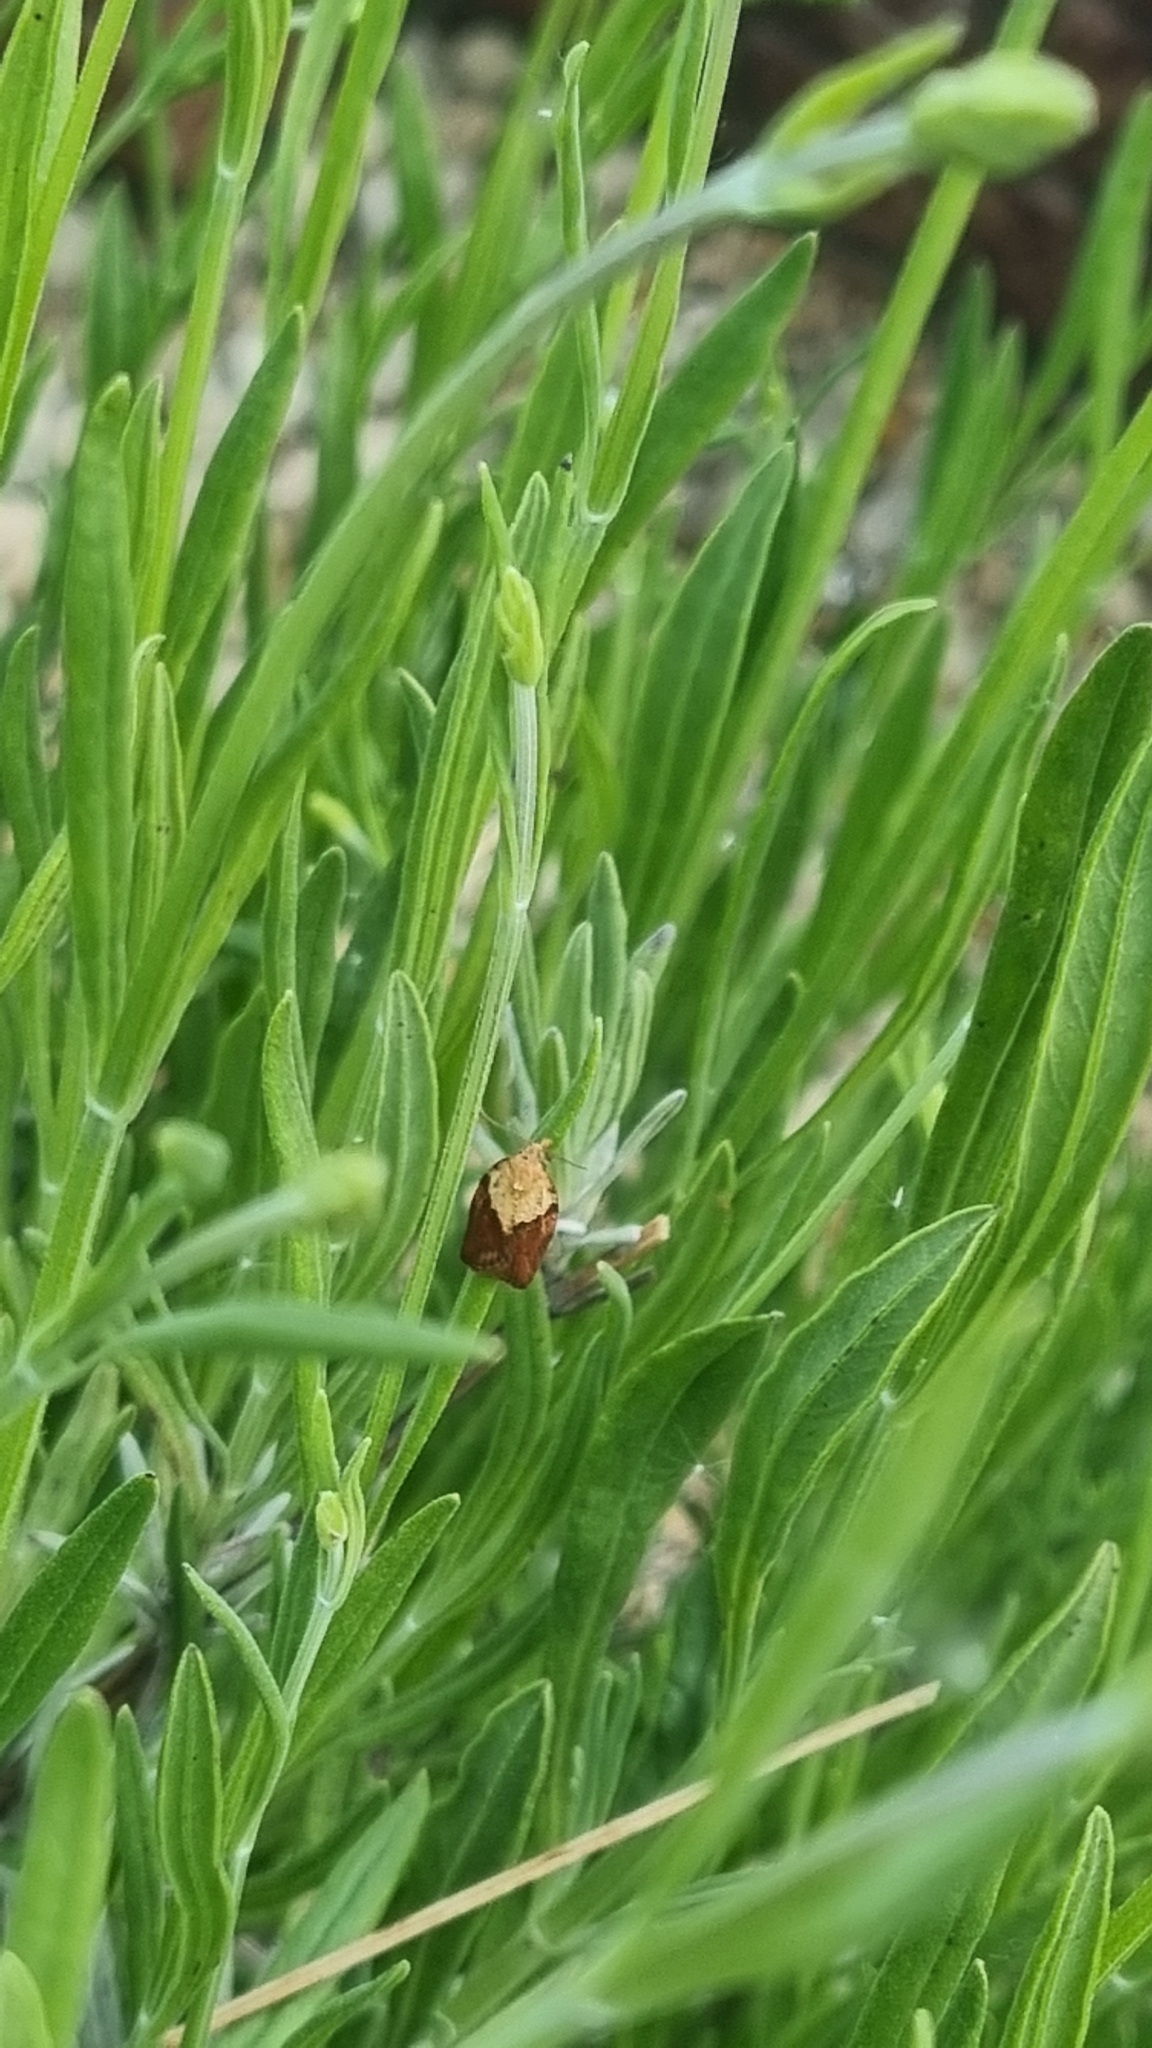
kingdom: Animalia
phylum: Arthropoda
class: Insecta
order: Lepidoptera
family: Tortricidae
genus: Epiphyas
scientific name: Epiphyas postvittana
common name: Light brown apple moth
